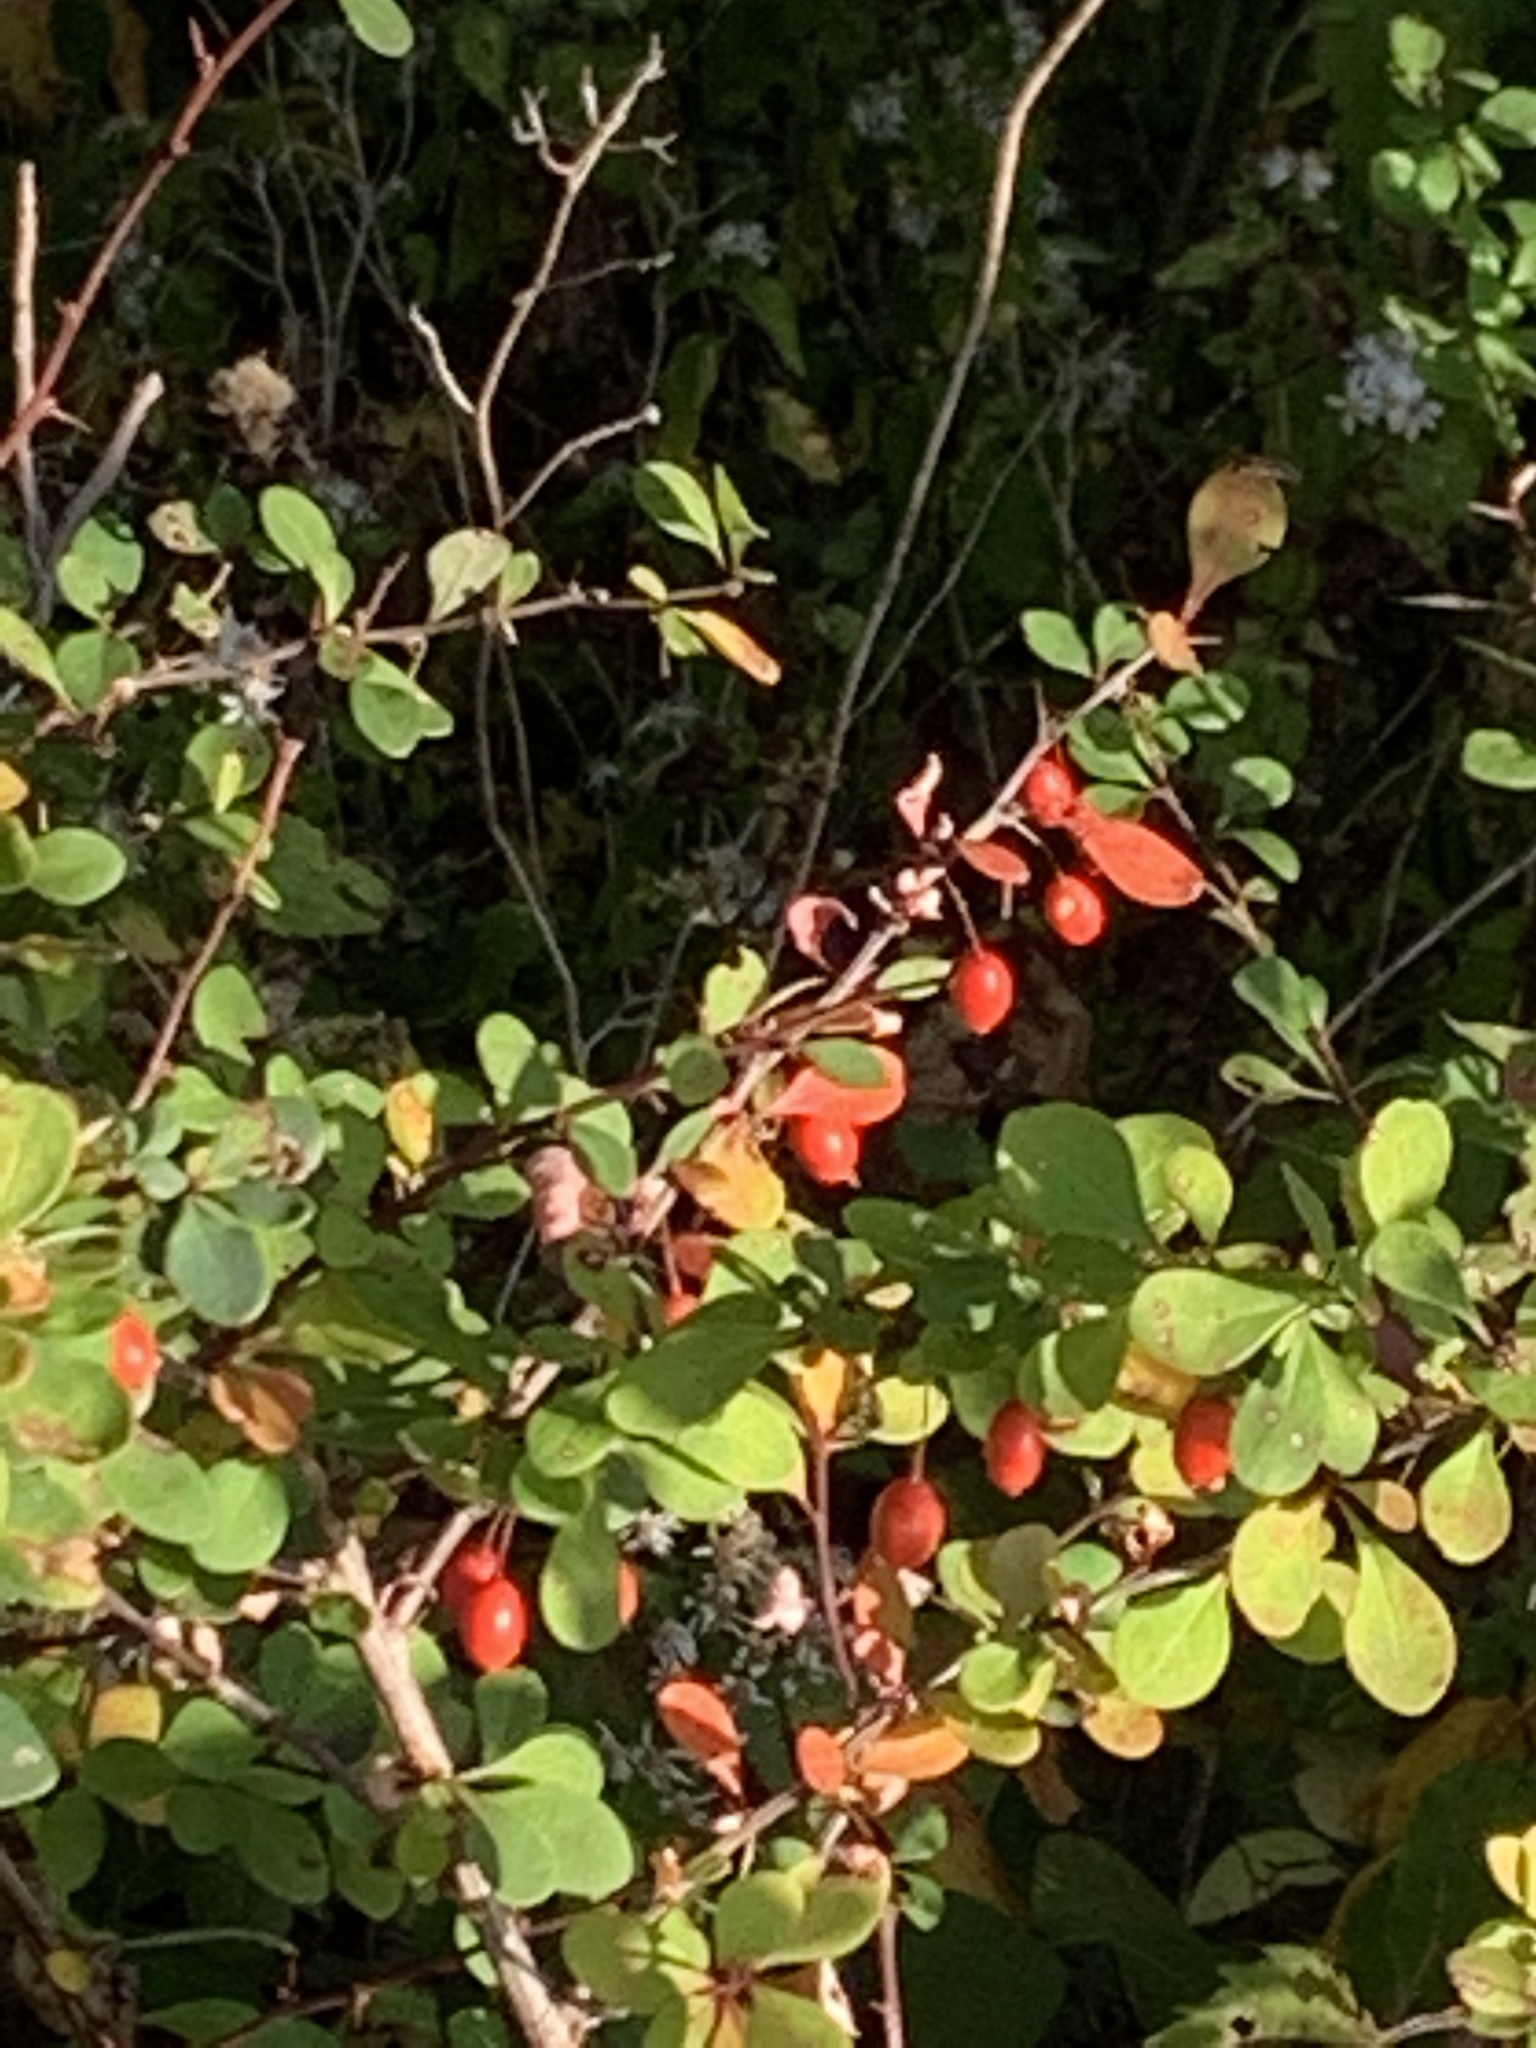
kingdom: Plantae
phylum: Tracheophyta
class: Magnoliopsida
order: Ranunculales
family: Berberidaceae
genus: Berberis
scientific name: Berberis thunbergii
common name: Japanese barberry
